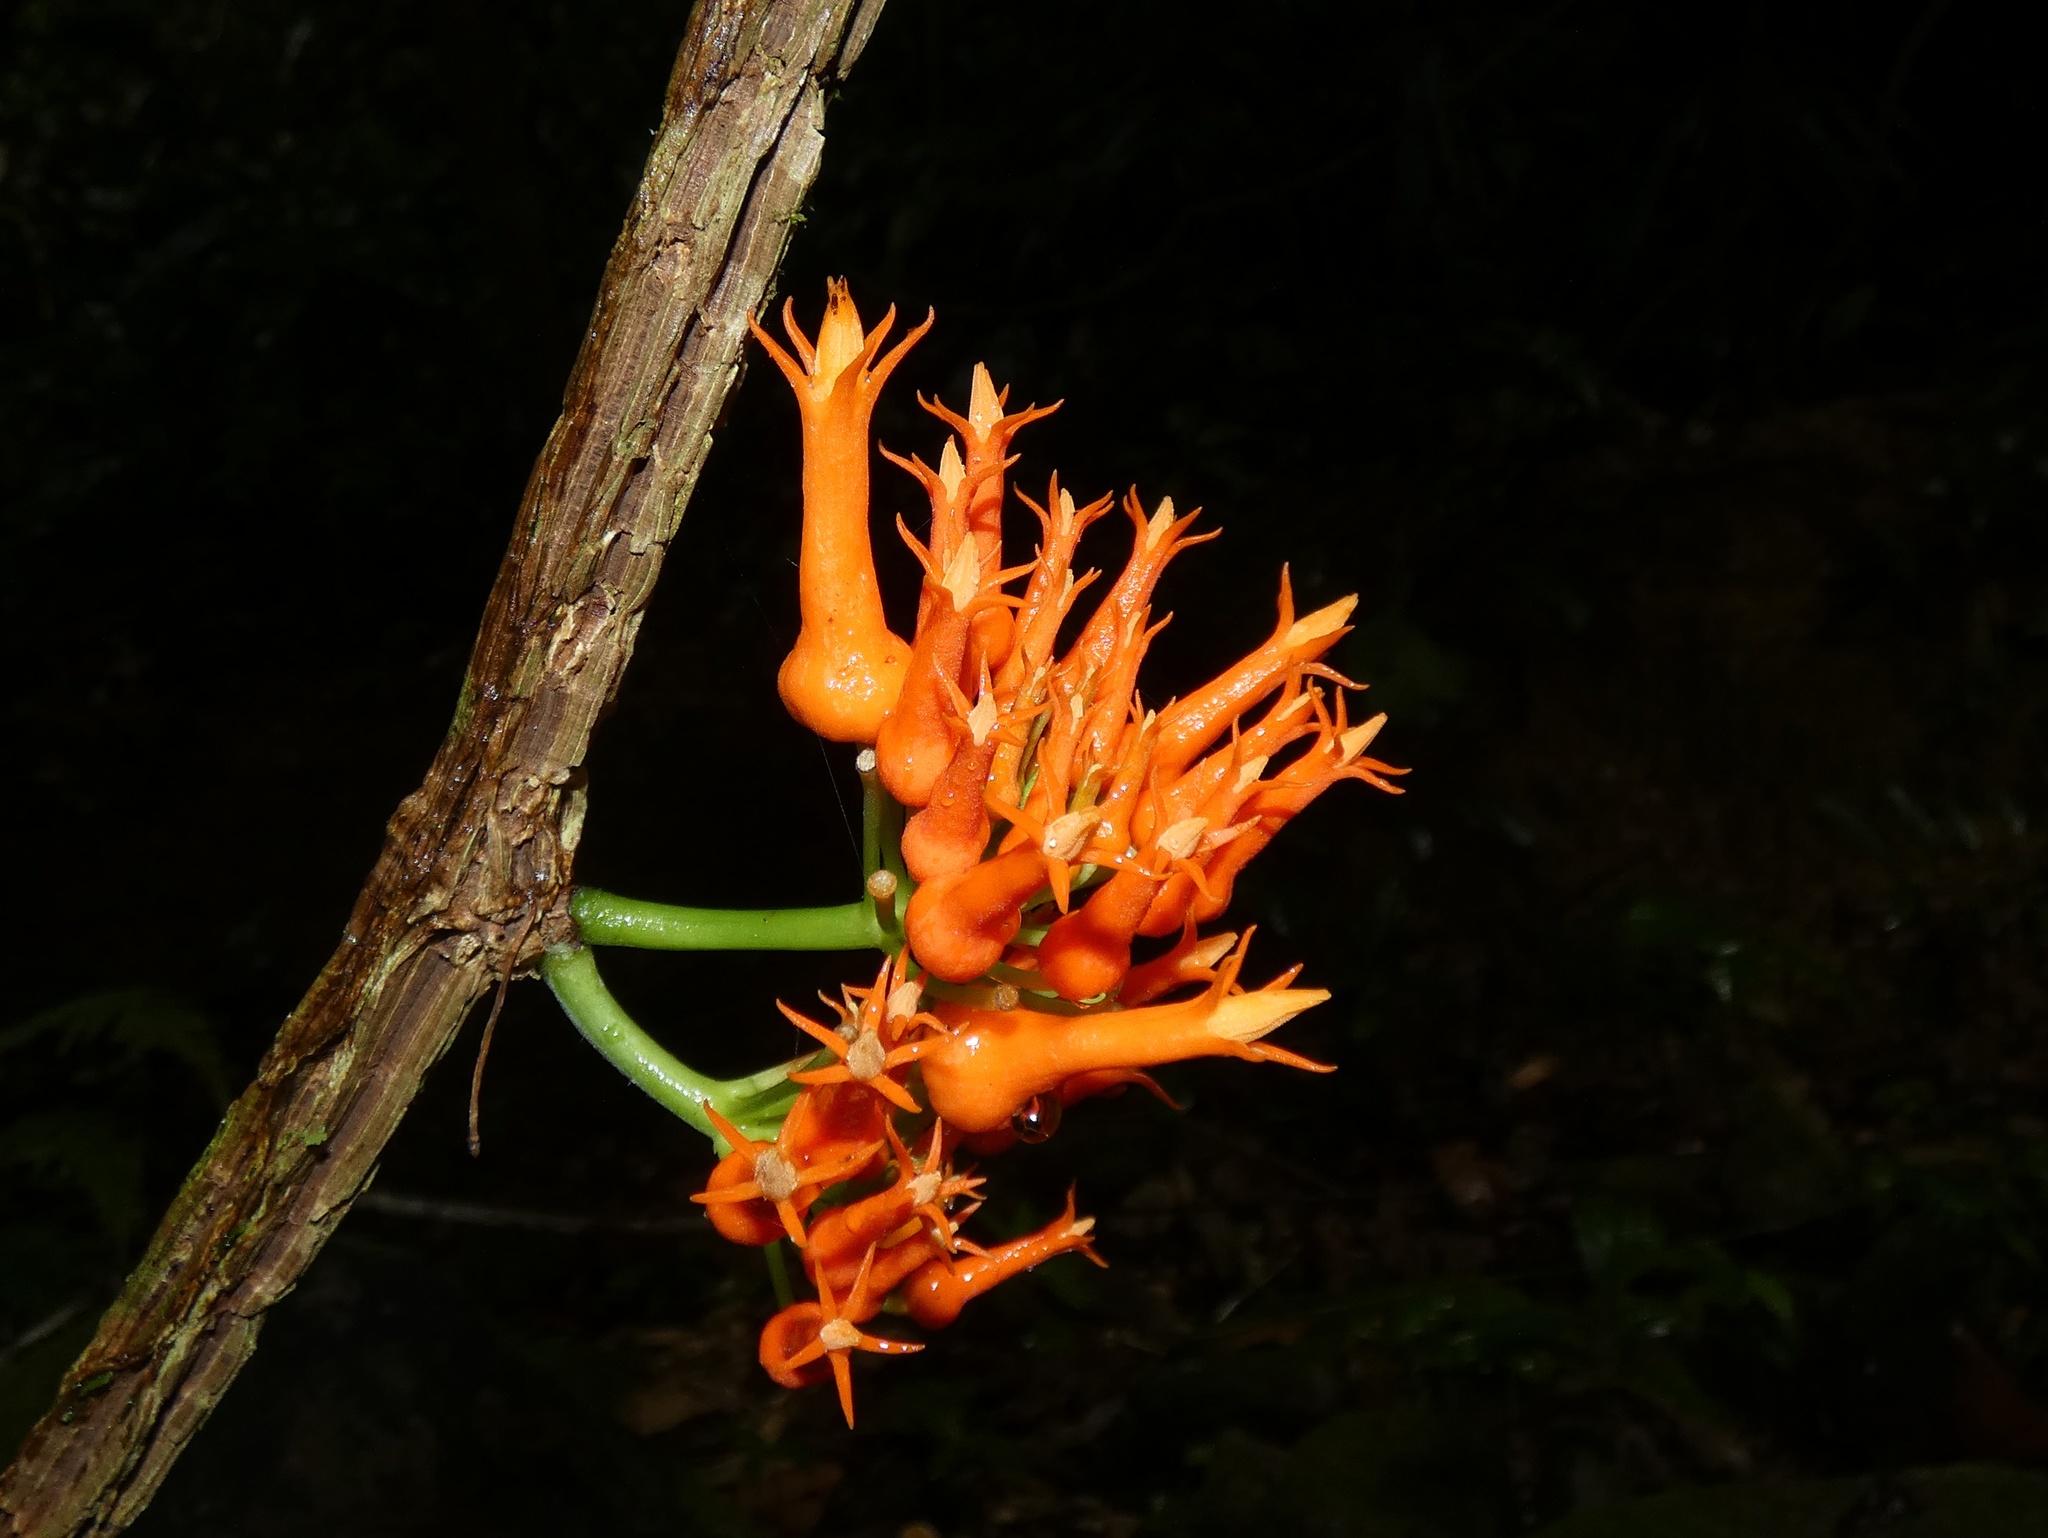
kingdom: Plantae
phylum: Tracheophyta
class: Magnoliopsida
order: Cucurbitales
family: Cucurbitaceae
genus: Gurania
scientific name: Gurania tubulosa
